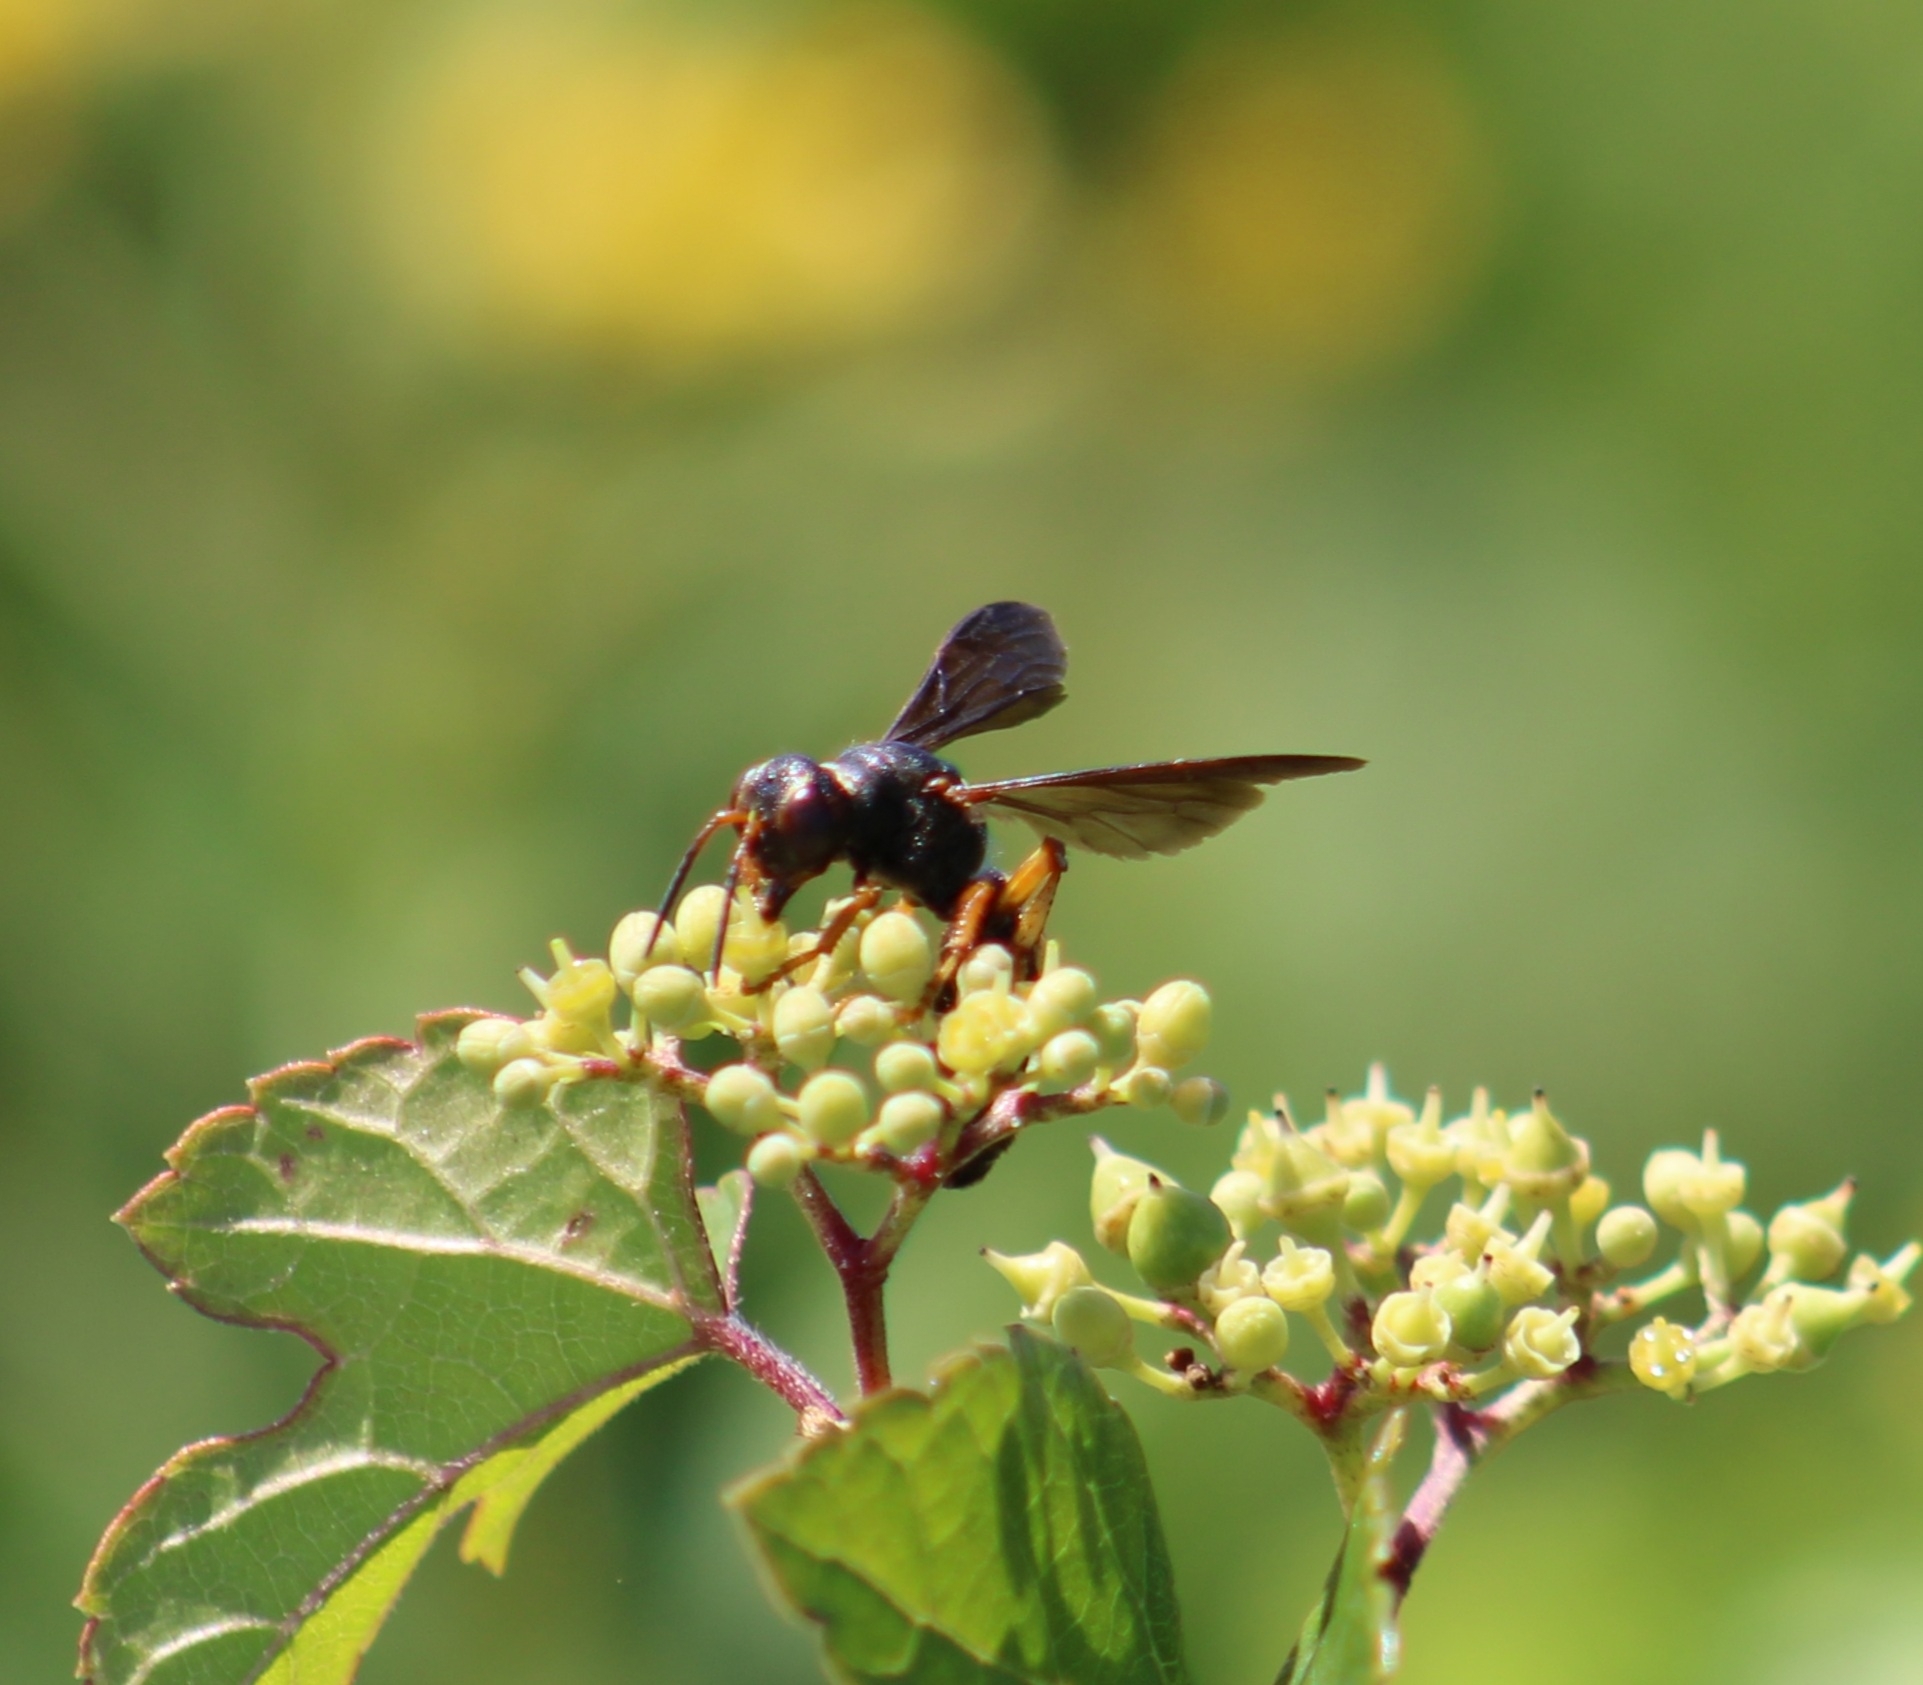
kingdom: Animalia
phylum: Arthropoda
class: Insecta
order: Hymenoptera
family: Crabronidae
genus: Cerceris
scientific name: Cerceris bicornuta
